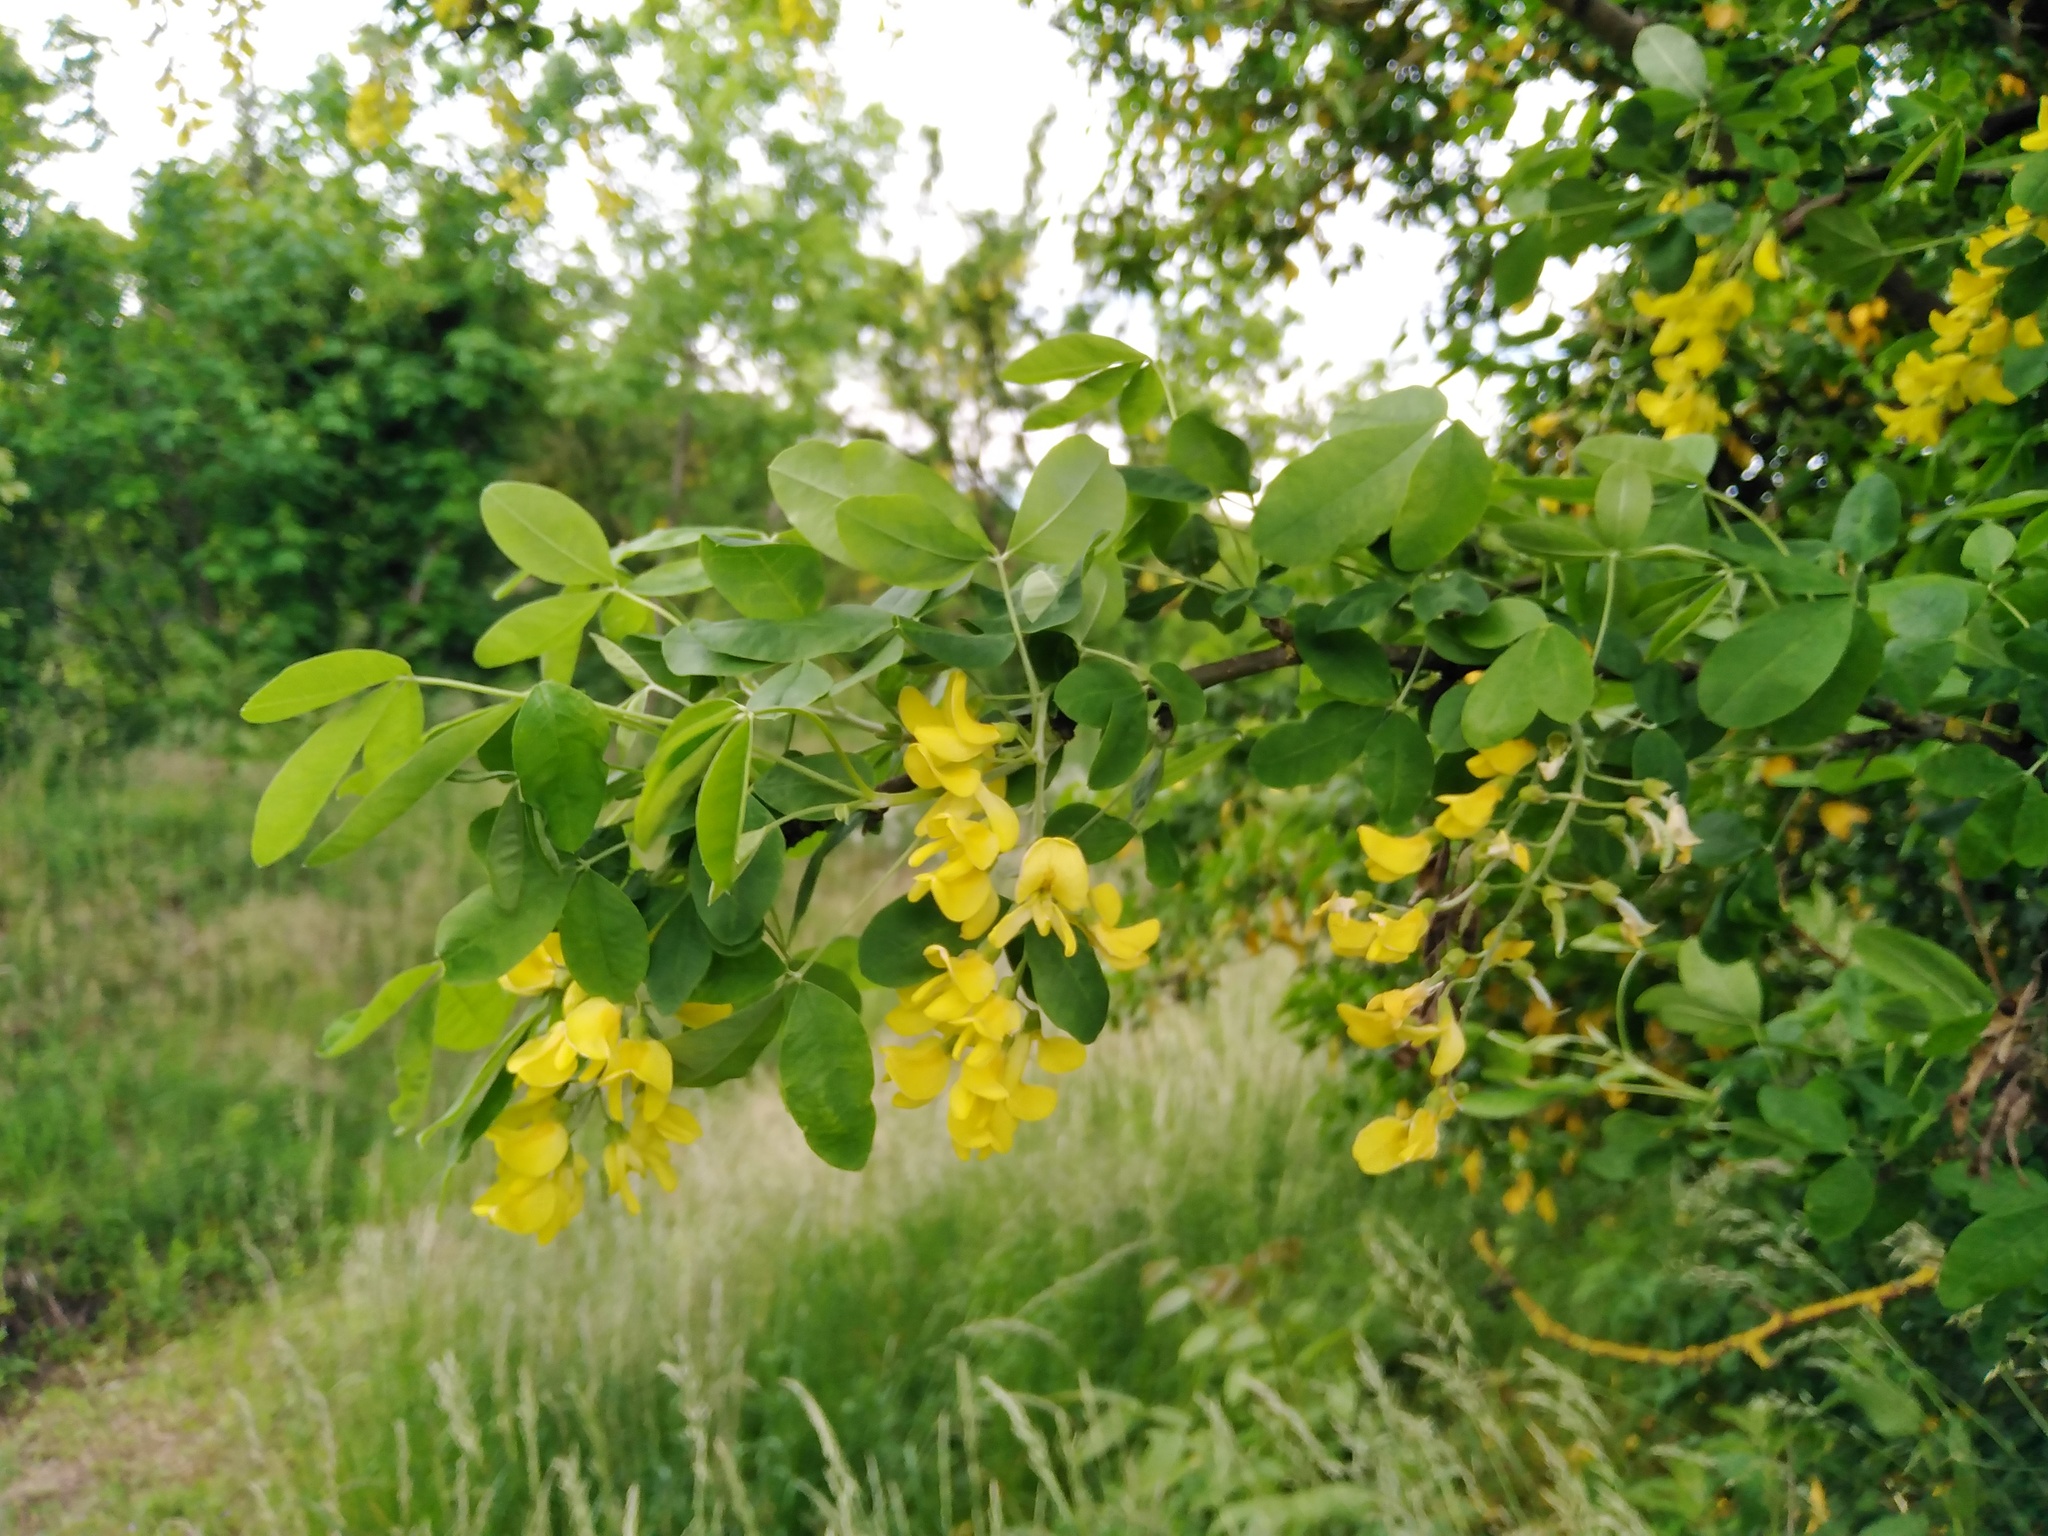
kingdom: Plantae
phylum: Tracheophyta
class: Magnoliopsida
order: Fabales
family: Fabaceae
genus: Laburnum
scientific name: Laburnum anagyroides
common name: Laburnum
